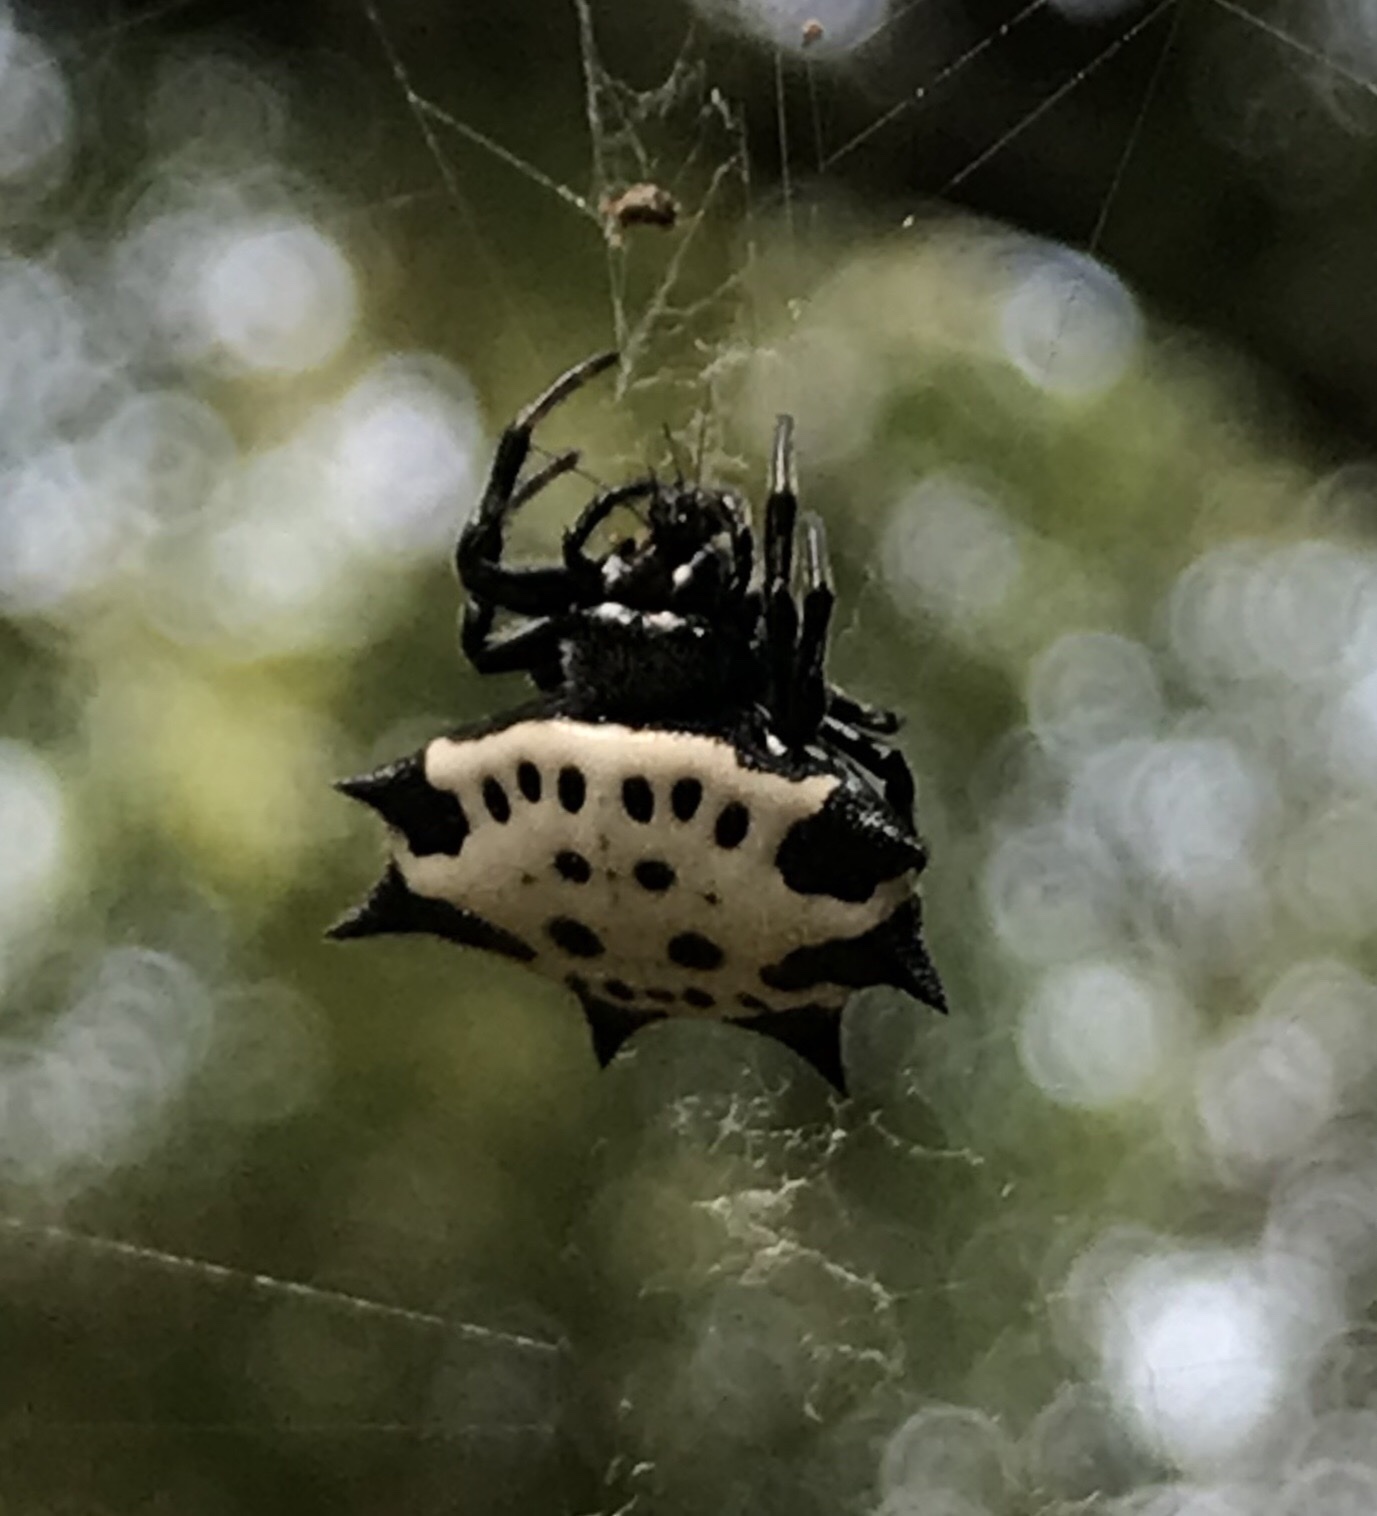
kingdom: Animalia
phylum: Arthropoda
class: Arachnida
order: Araneae
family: Araneidae
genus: Gasteracantha
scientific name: Gasteracantha cancriformis
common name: Orb weavers
